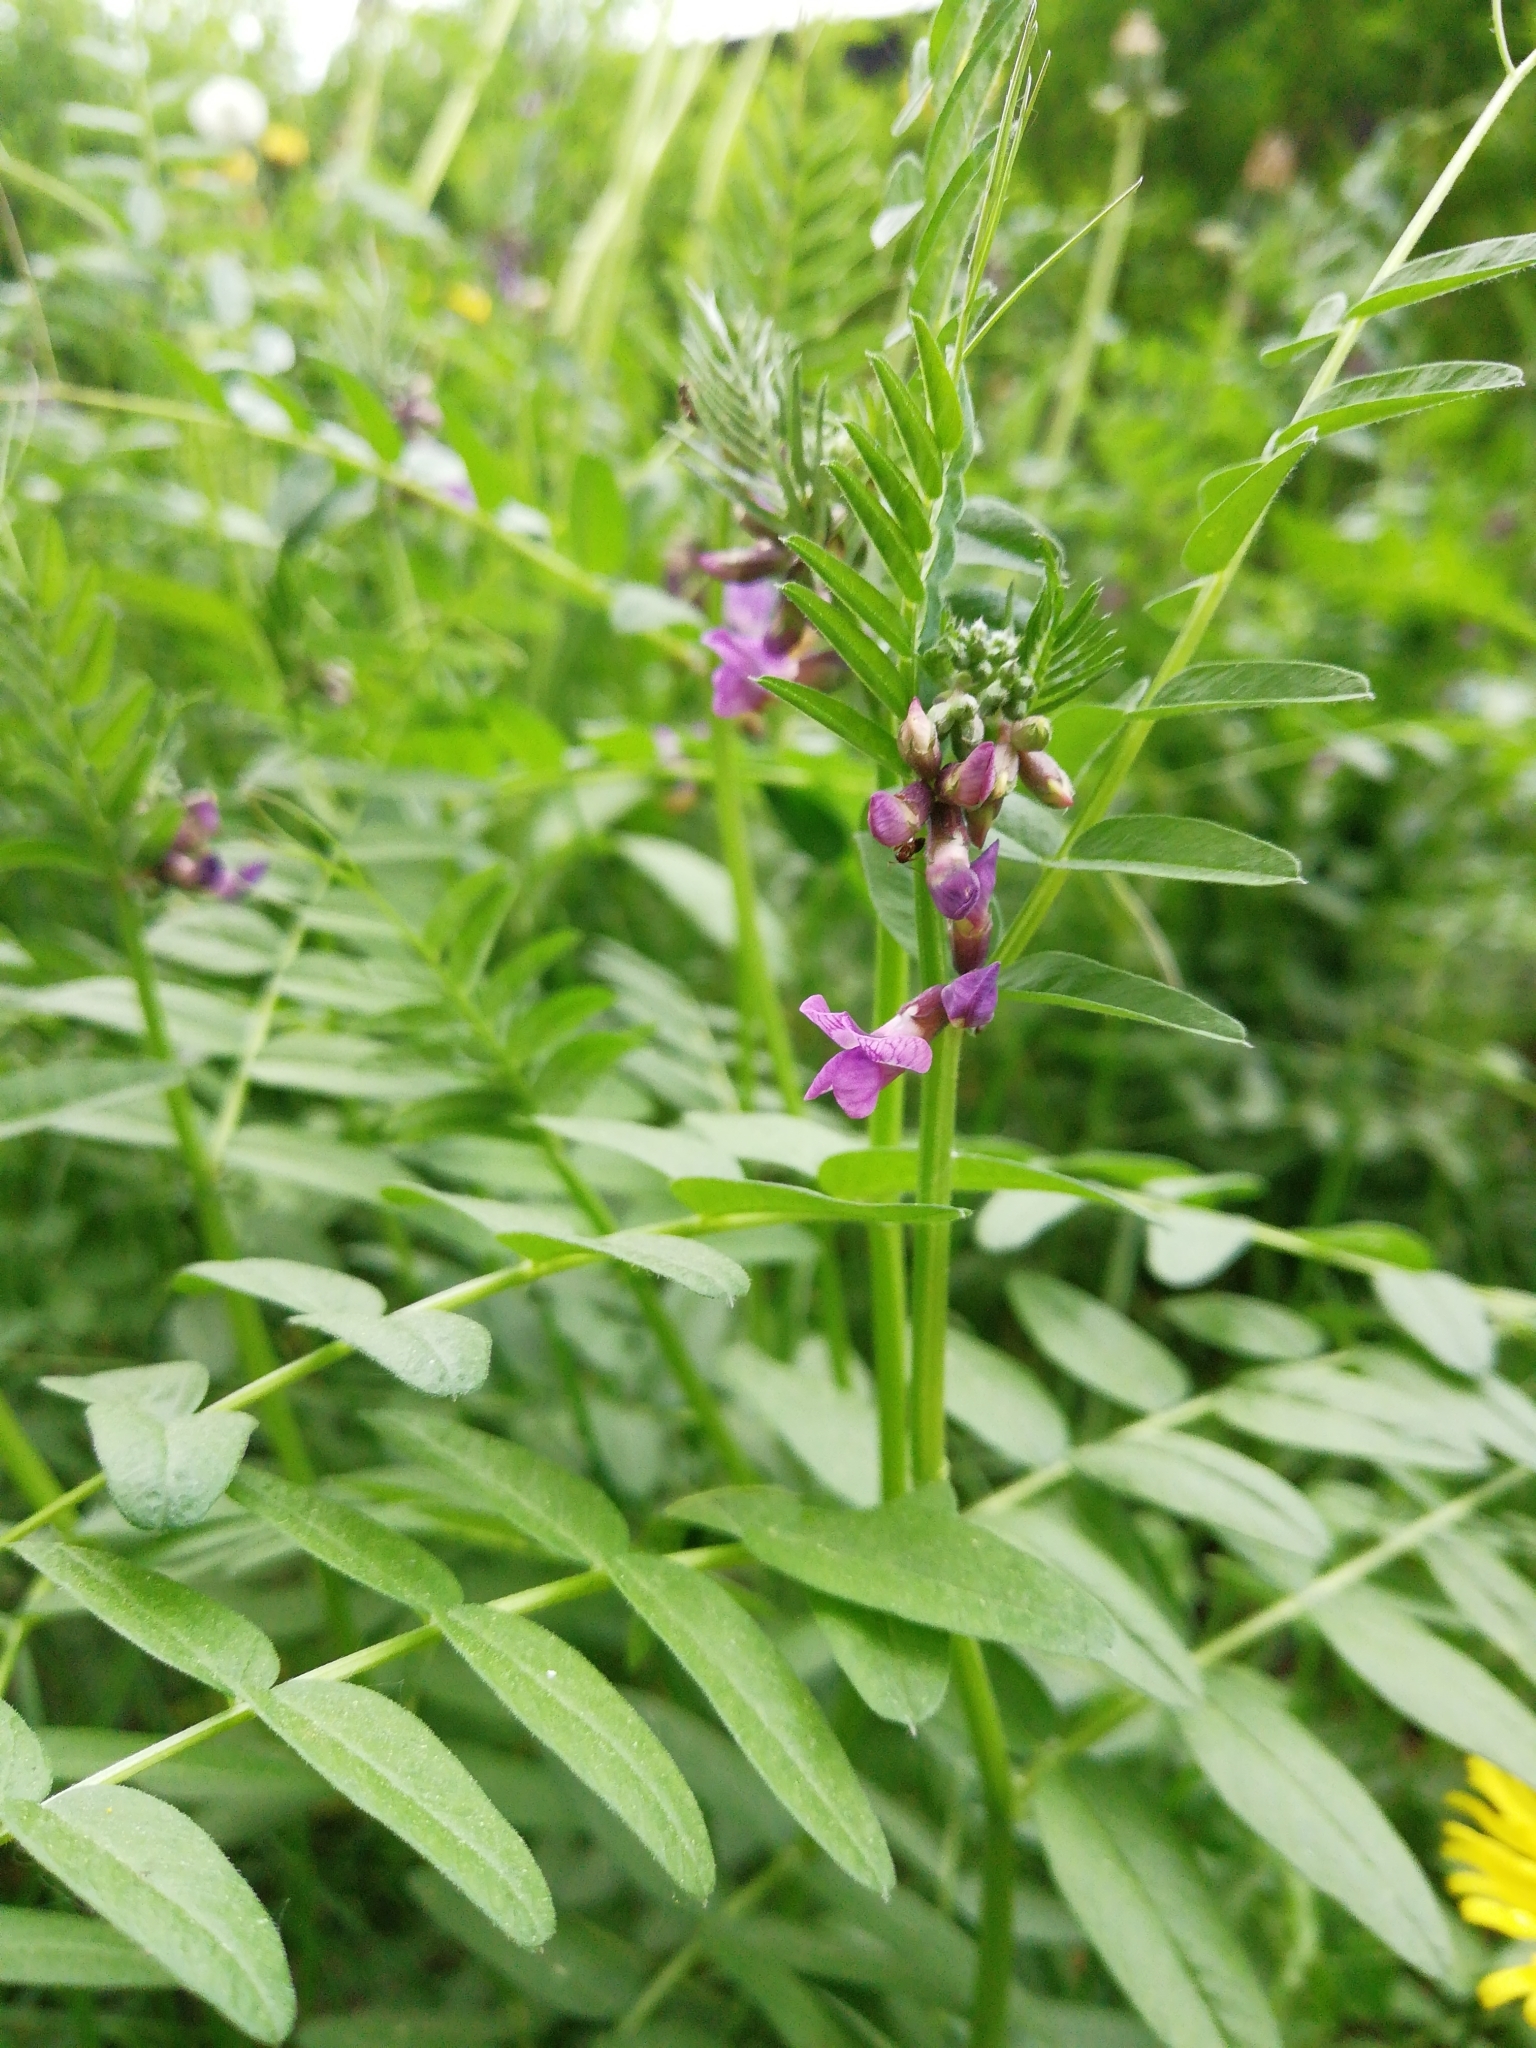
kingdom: Plantae
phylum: Tracheophyta
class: Magnoliopsida
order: Fabales
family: Fabaceae
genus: Vicia
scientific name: Vicia sepium
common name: Bush vetch
